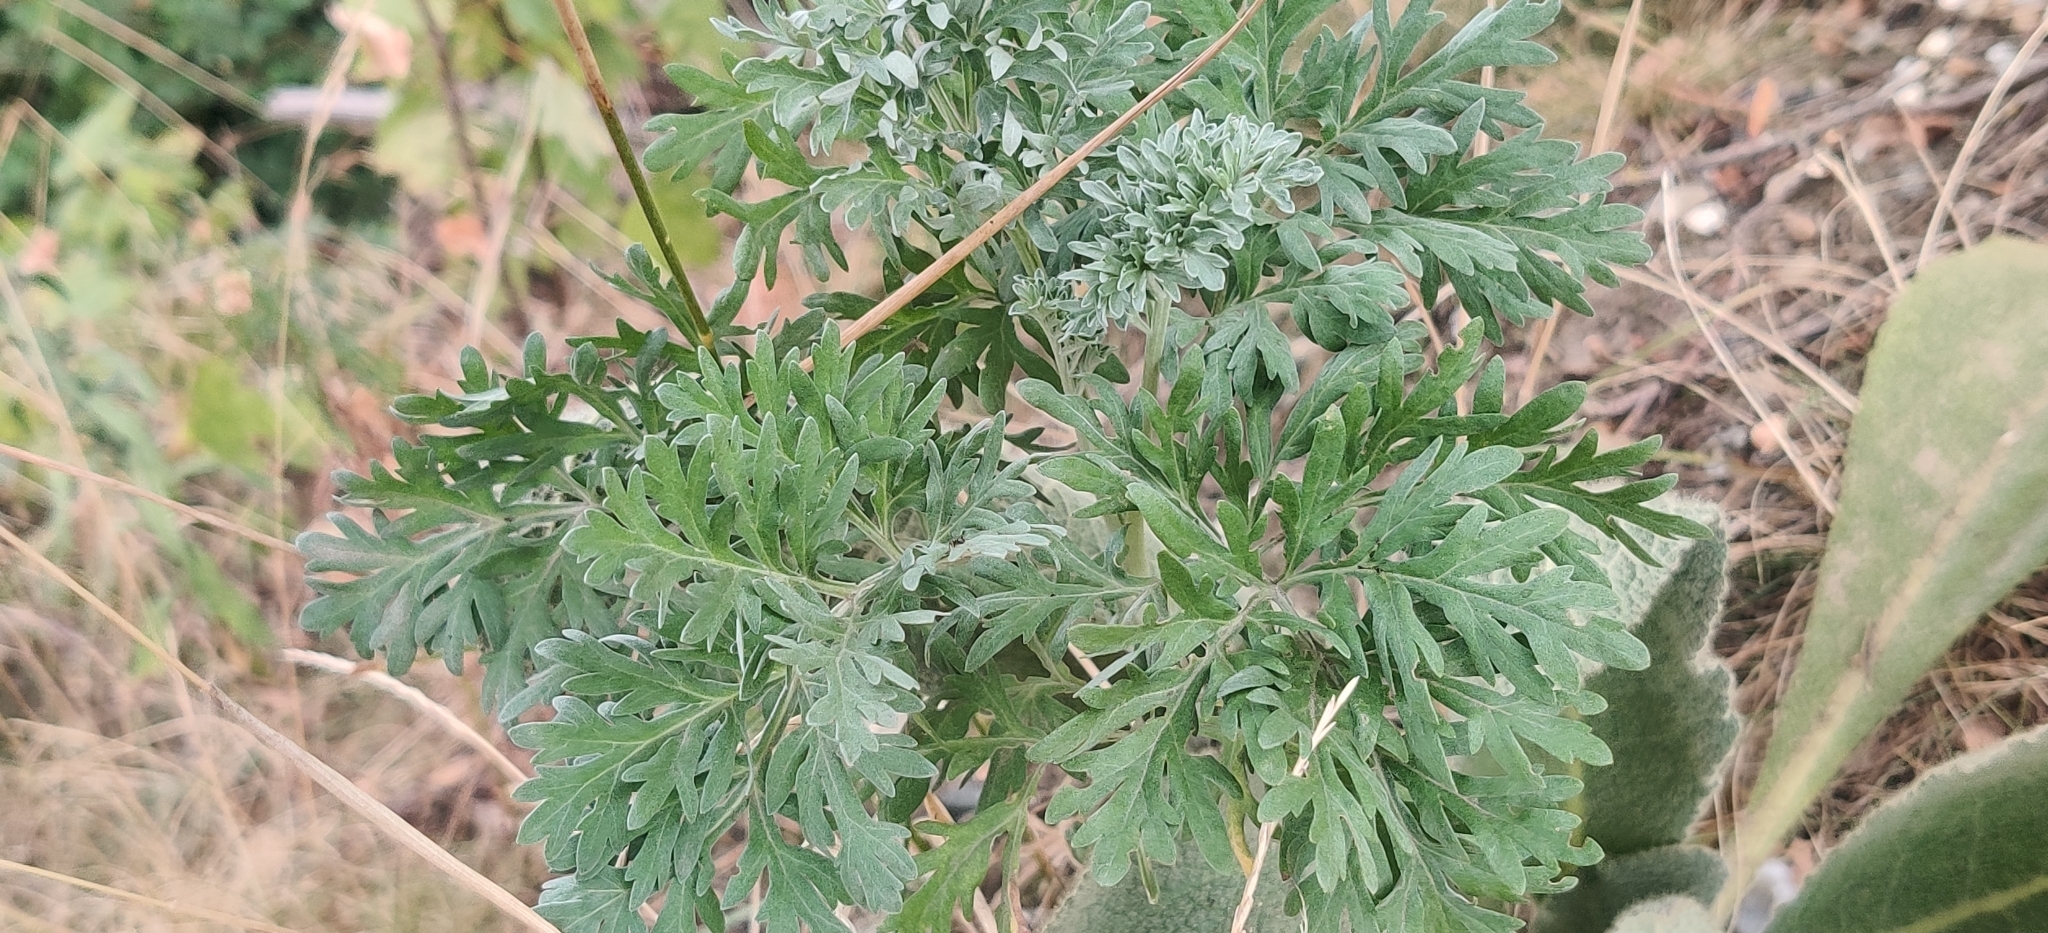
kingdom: Plantae
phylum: Tracheophyta
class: Magnoliopsida
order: Asterales
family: Asteraceae
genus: Artemisia
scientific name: Artemisia absinthium
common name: Wormwood
